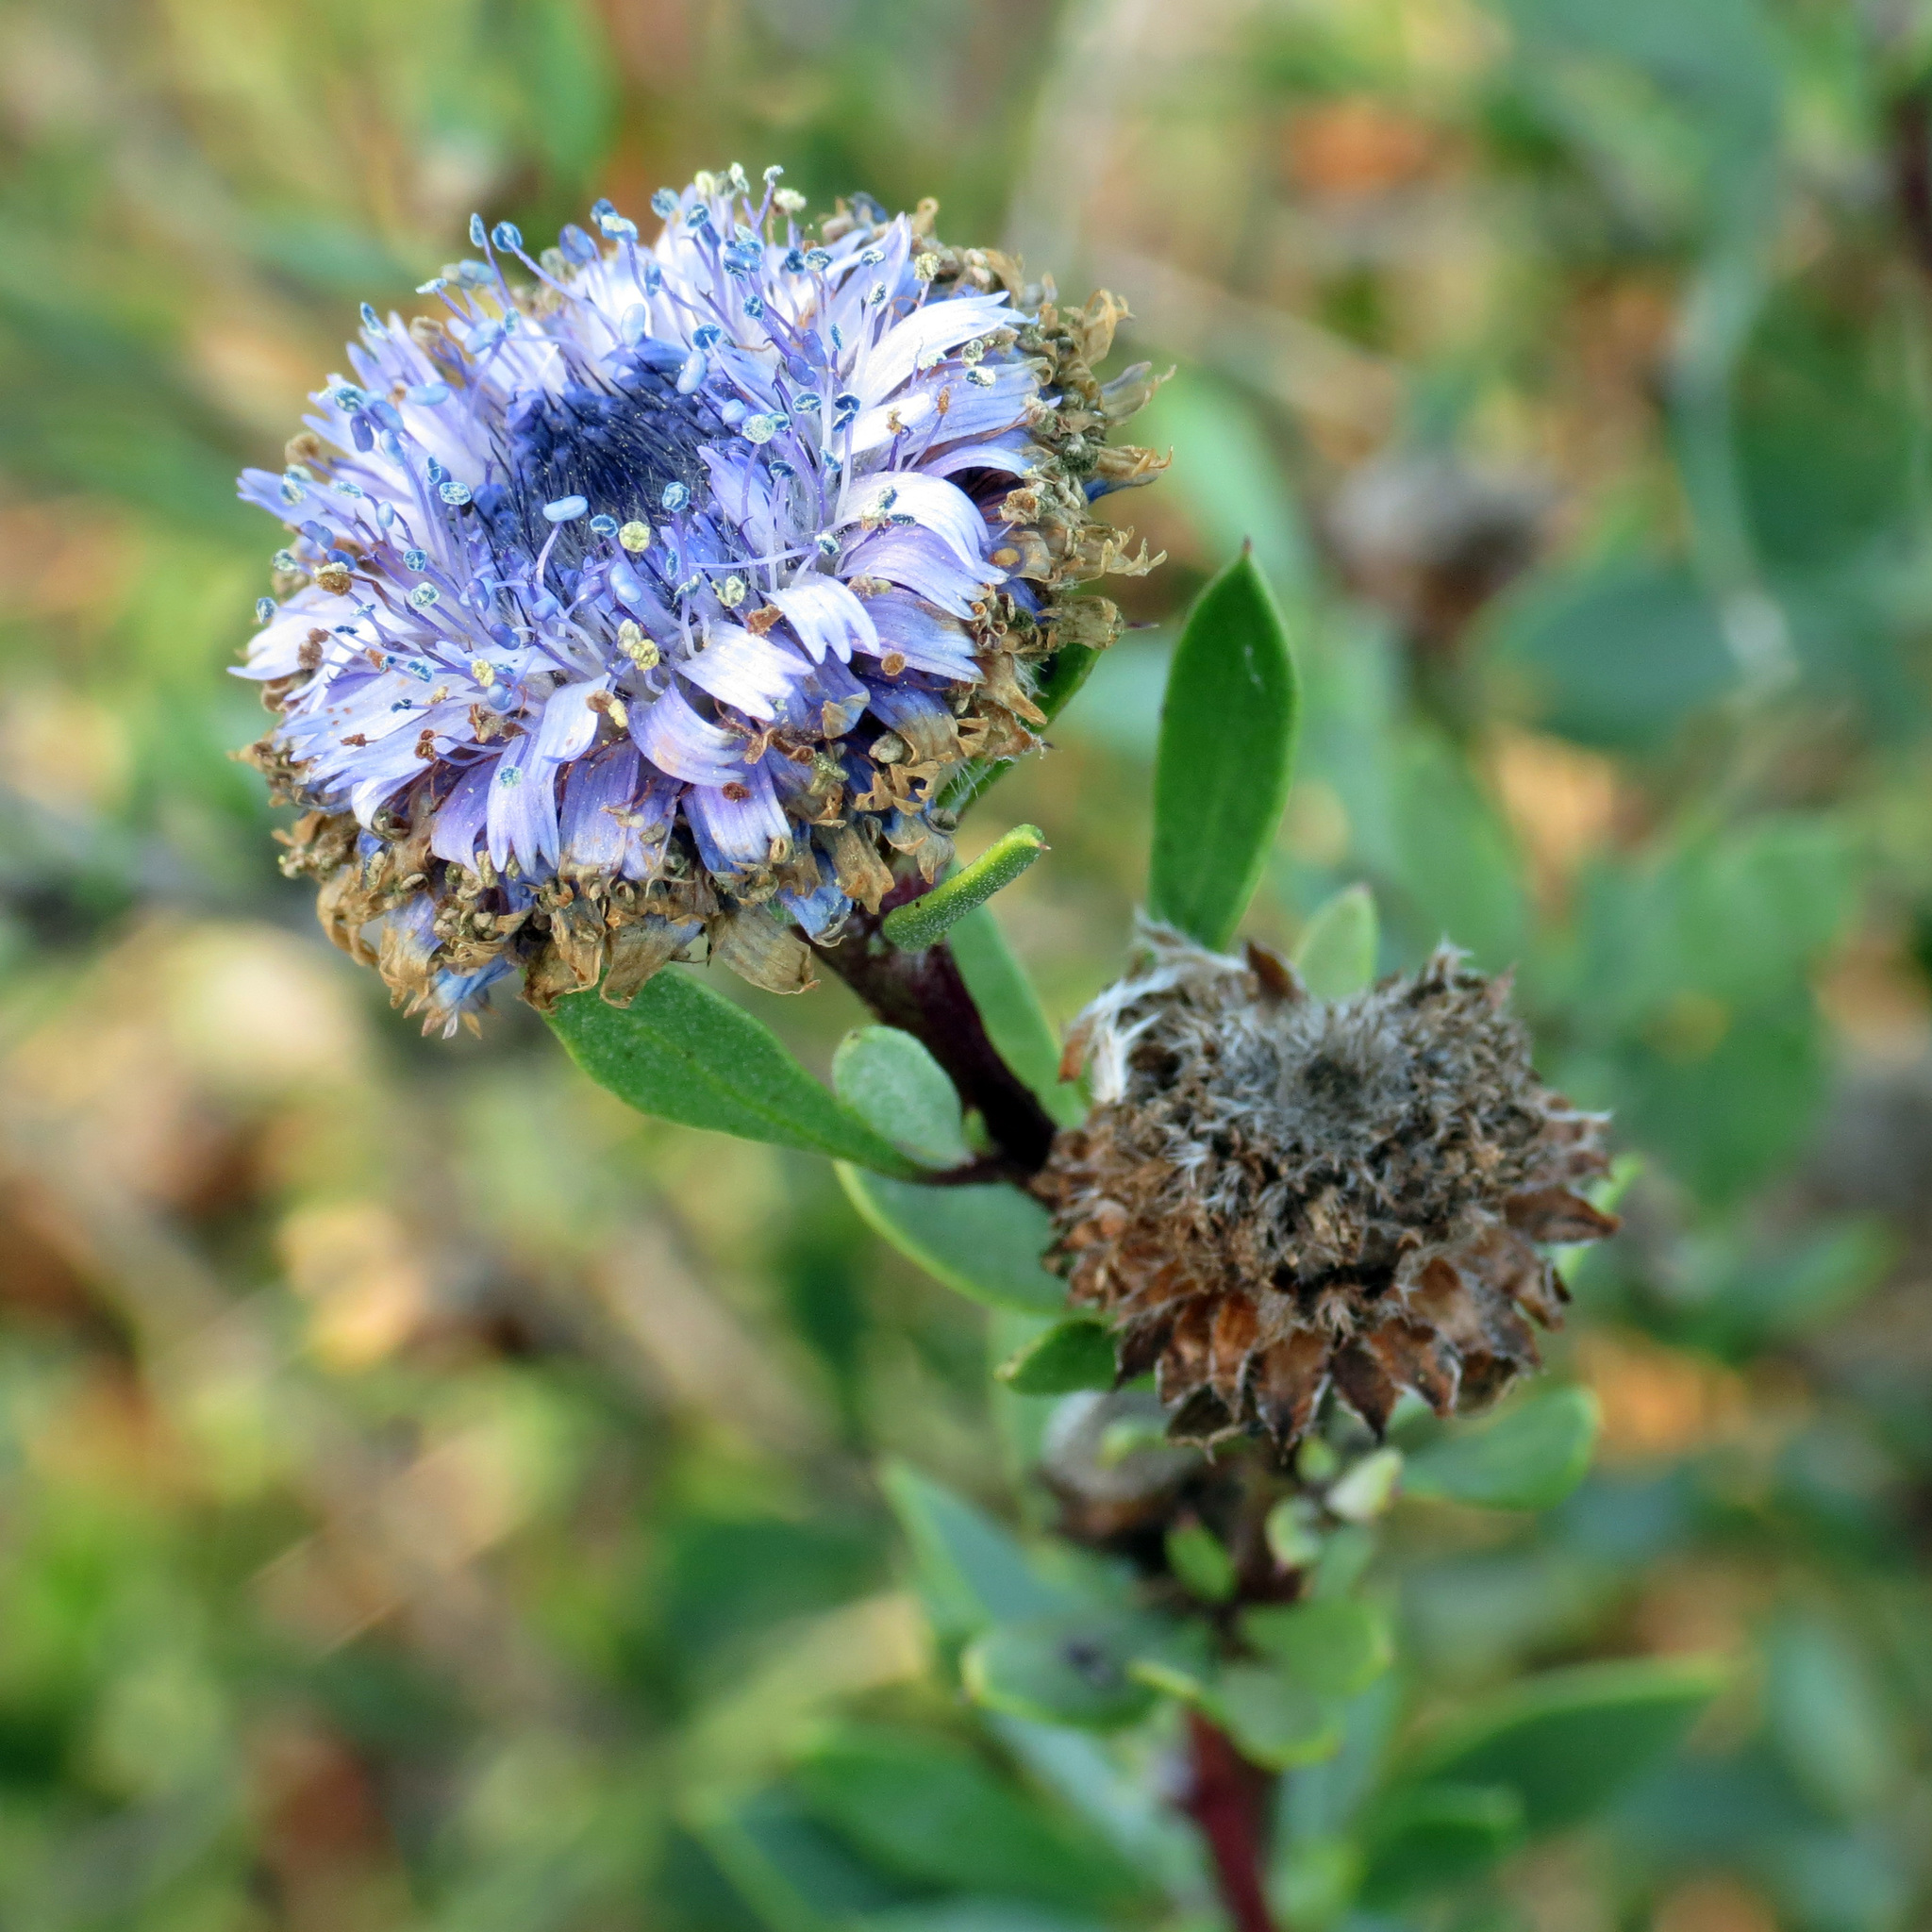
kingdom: Plantae
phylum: Tracheophyta
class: Magnoliopsida
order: Lamiales
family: Plantaginaceae
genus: Globularia
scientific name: Globularia alypum
